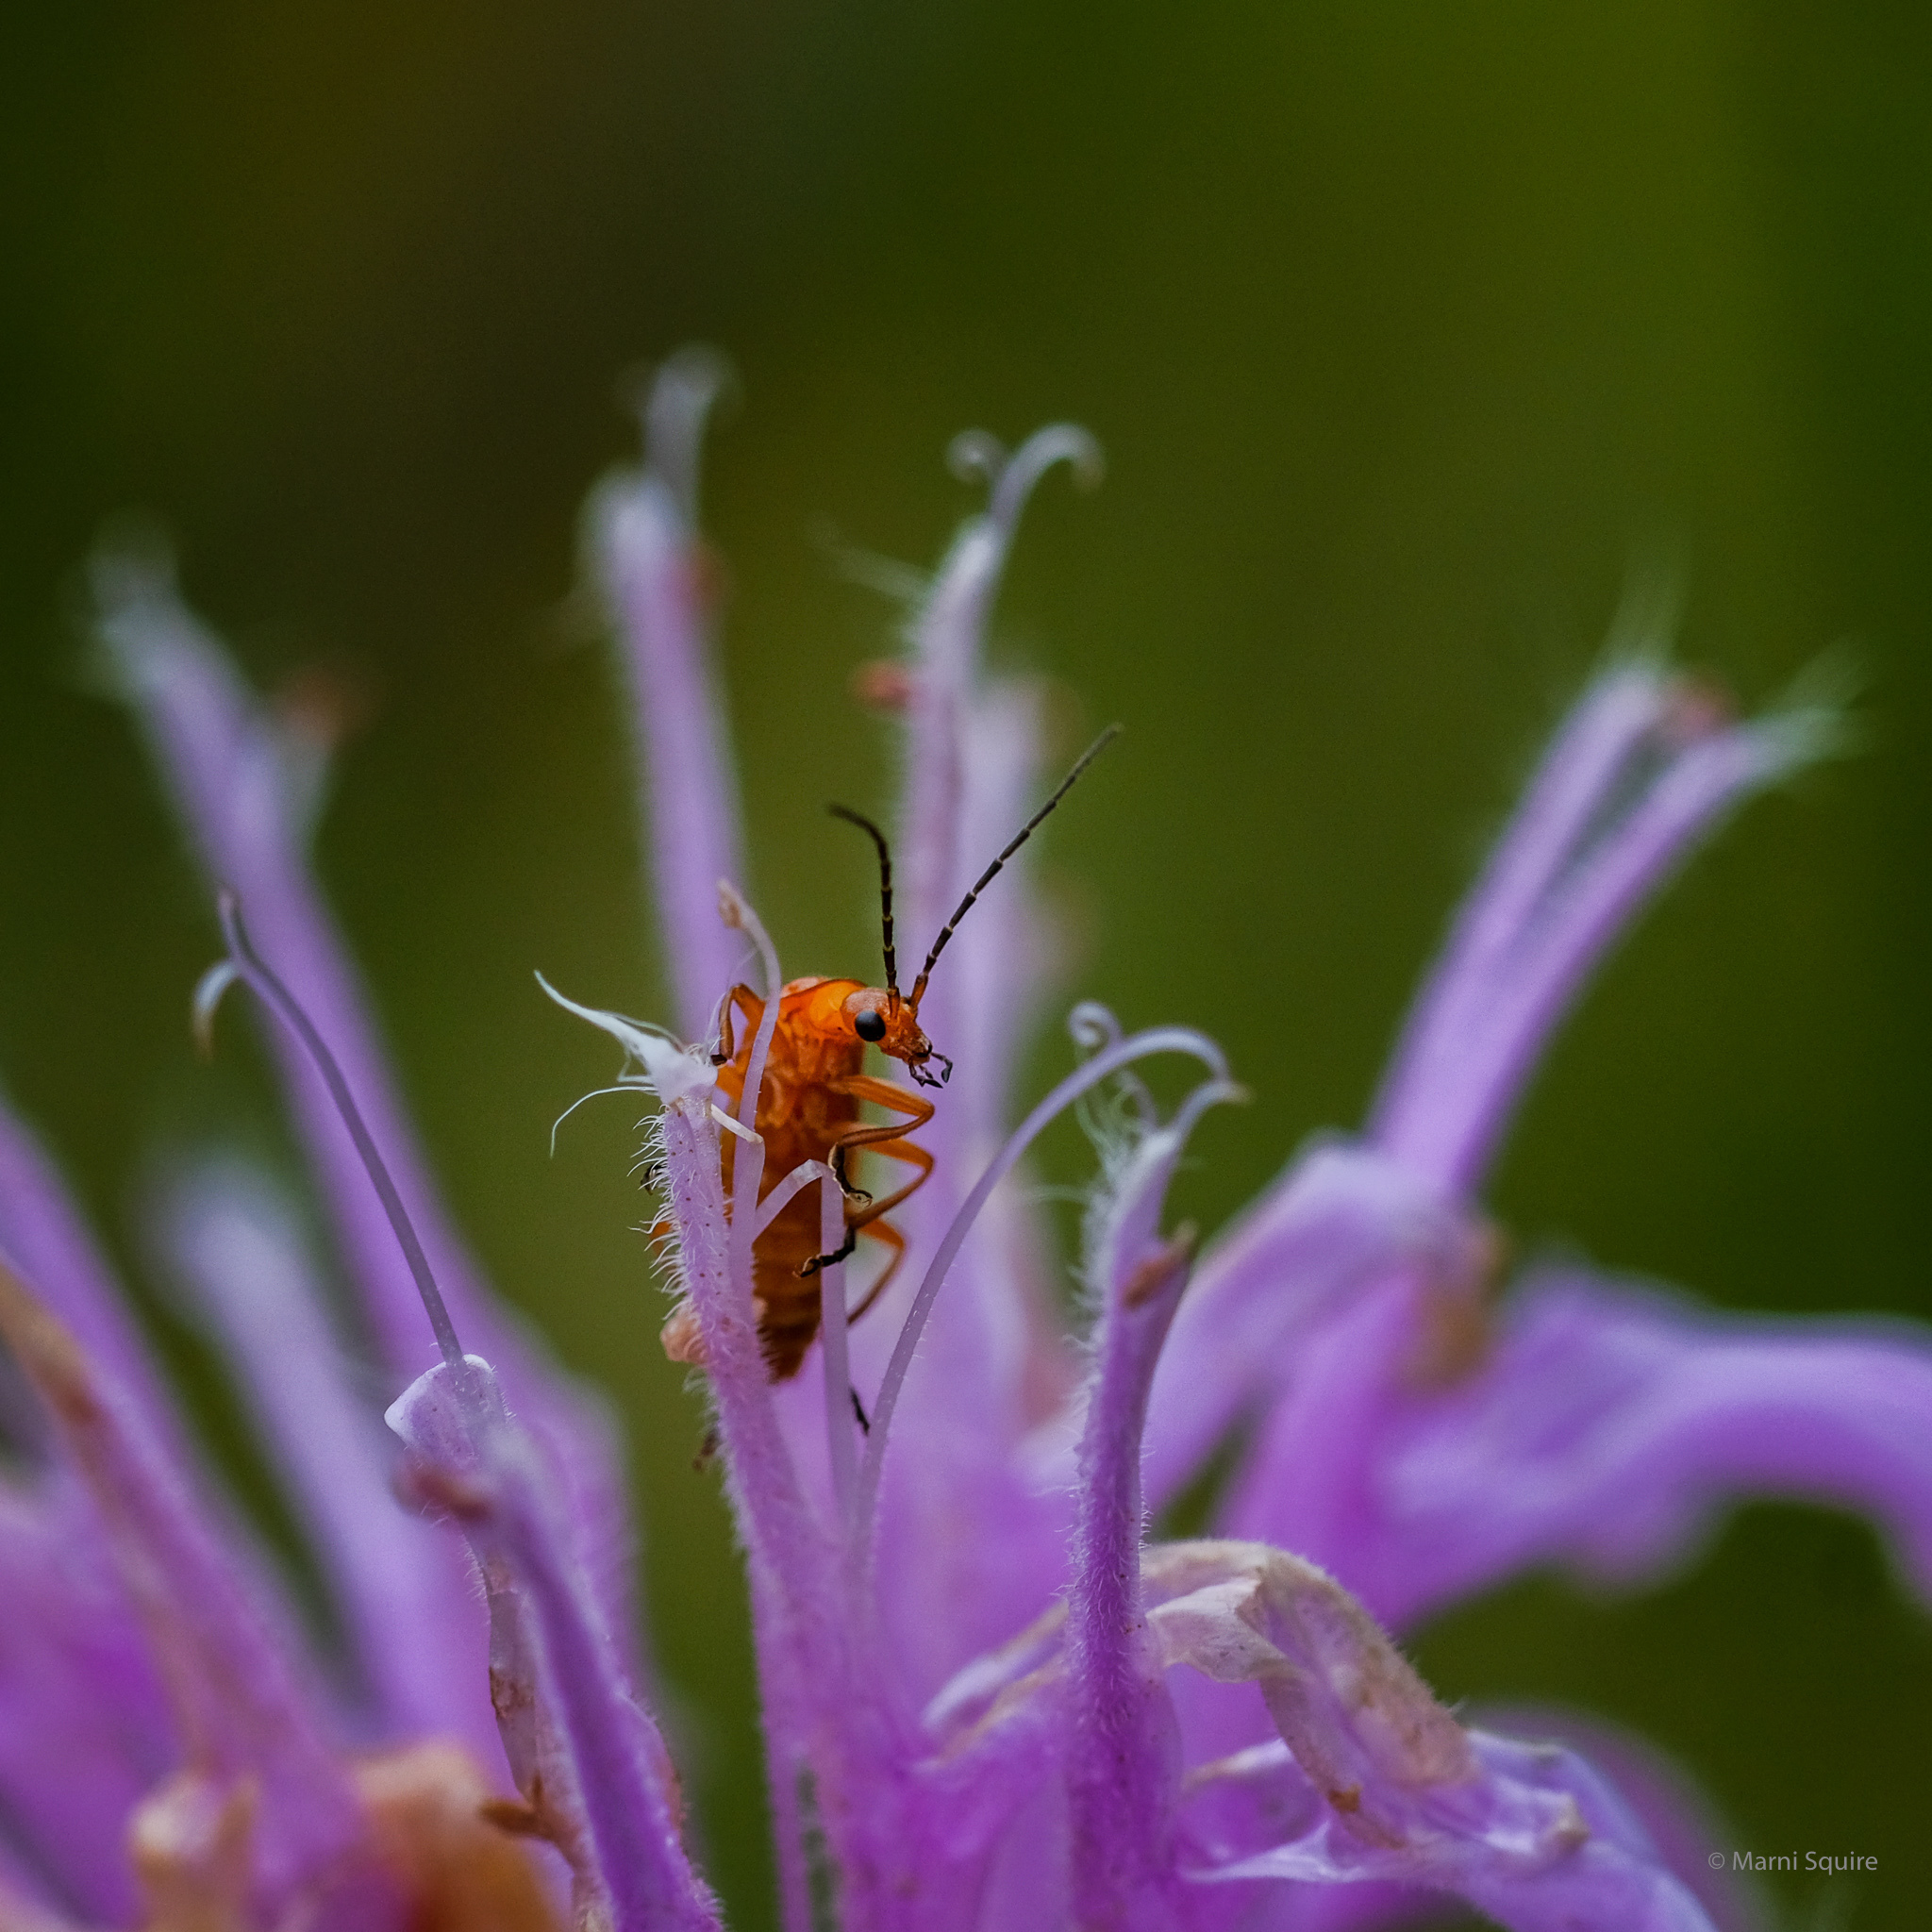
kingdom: Animalia
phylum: Arthropoda
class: Insecta
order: Coleoptera
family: Cantharidae
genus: Rhagonycha
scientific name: Rhagonycha fulva
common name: Common red soldier beetle
